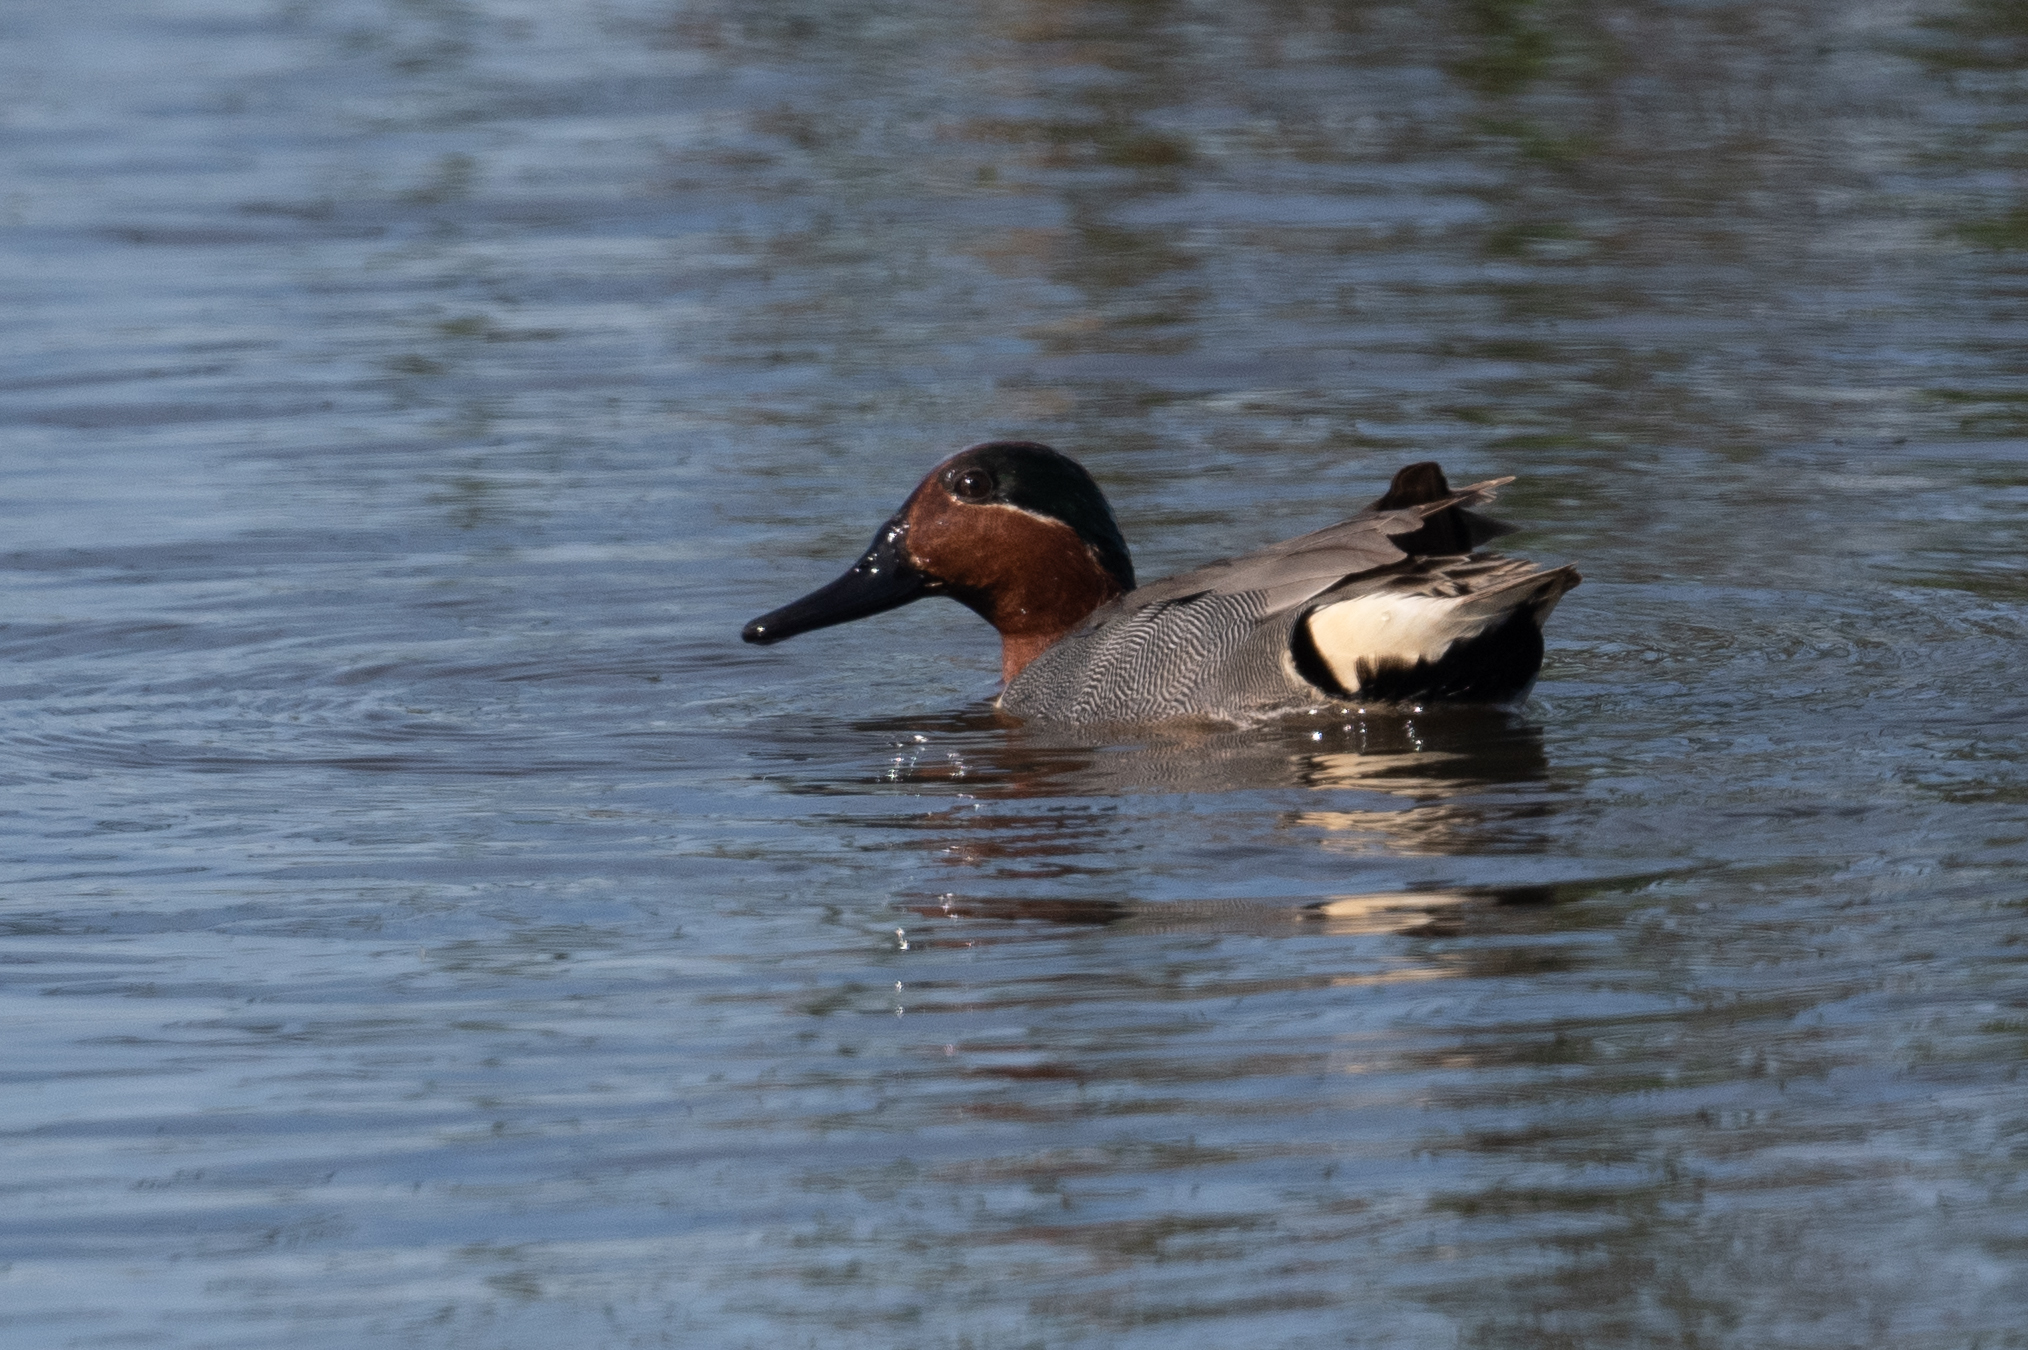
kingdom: Animalia
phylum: Chordata
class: Aves
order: Anseriformes
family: Anatidae
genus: Anas
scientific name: Anas crecca
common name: Eurasian teal
